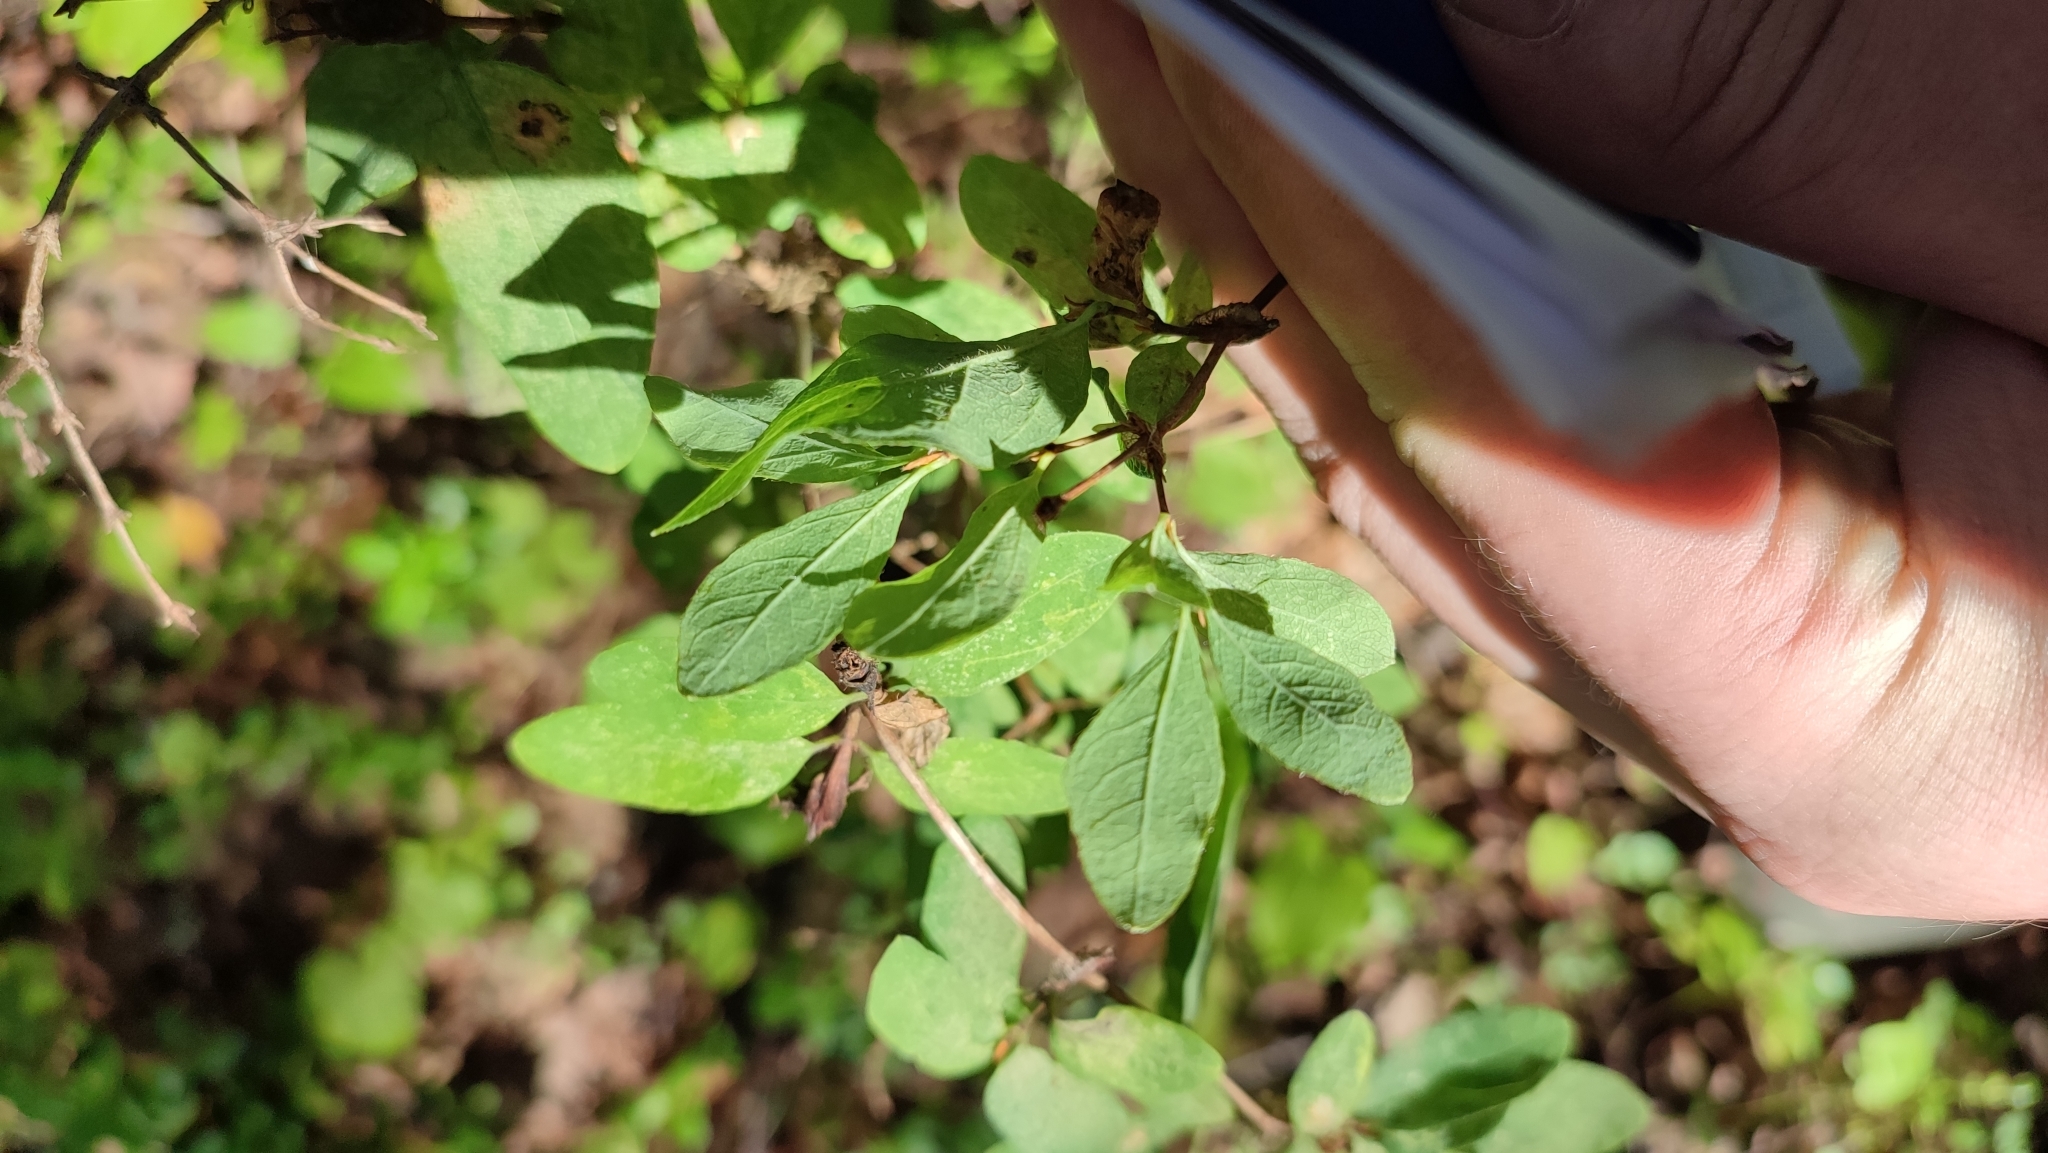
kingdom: Plantae
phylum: Tracheophyta
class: Magnoliopsida
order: Dipsacales
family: Caprifoliaceae
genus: Lonicera
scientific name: Lonicera caerulea
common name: Blue honeysuckle
